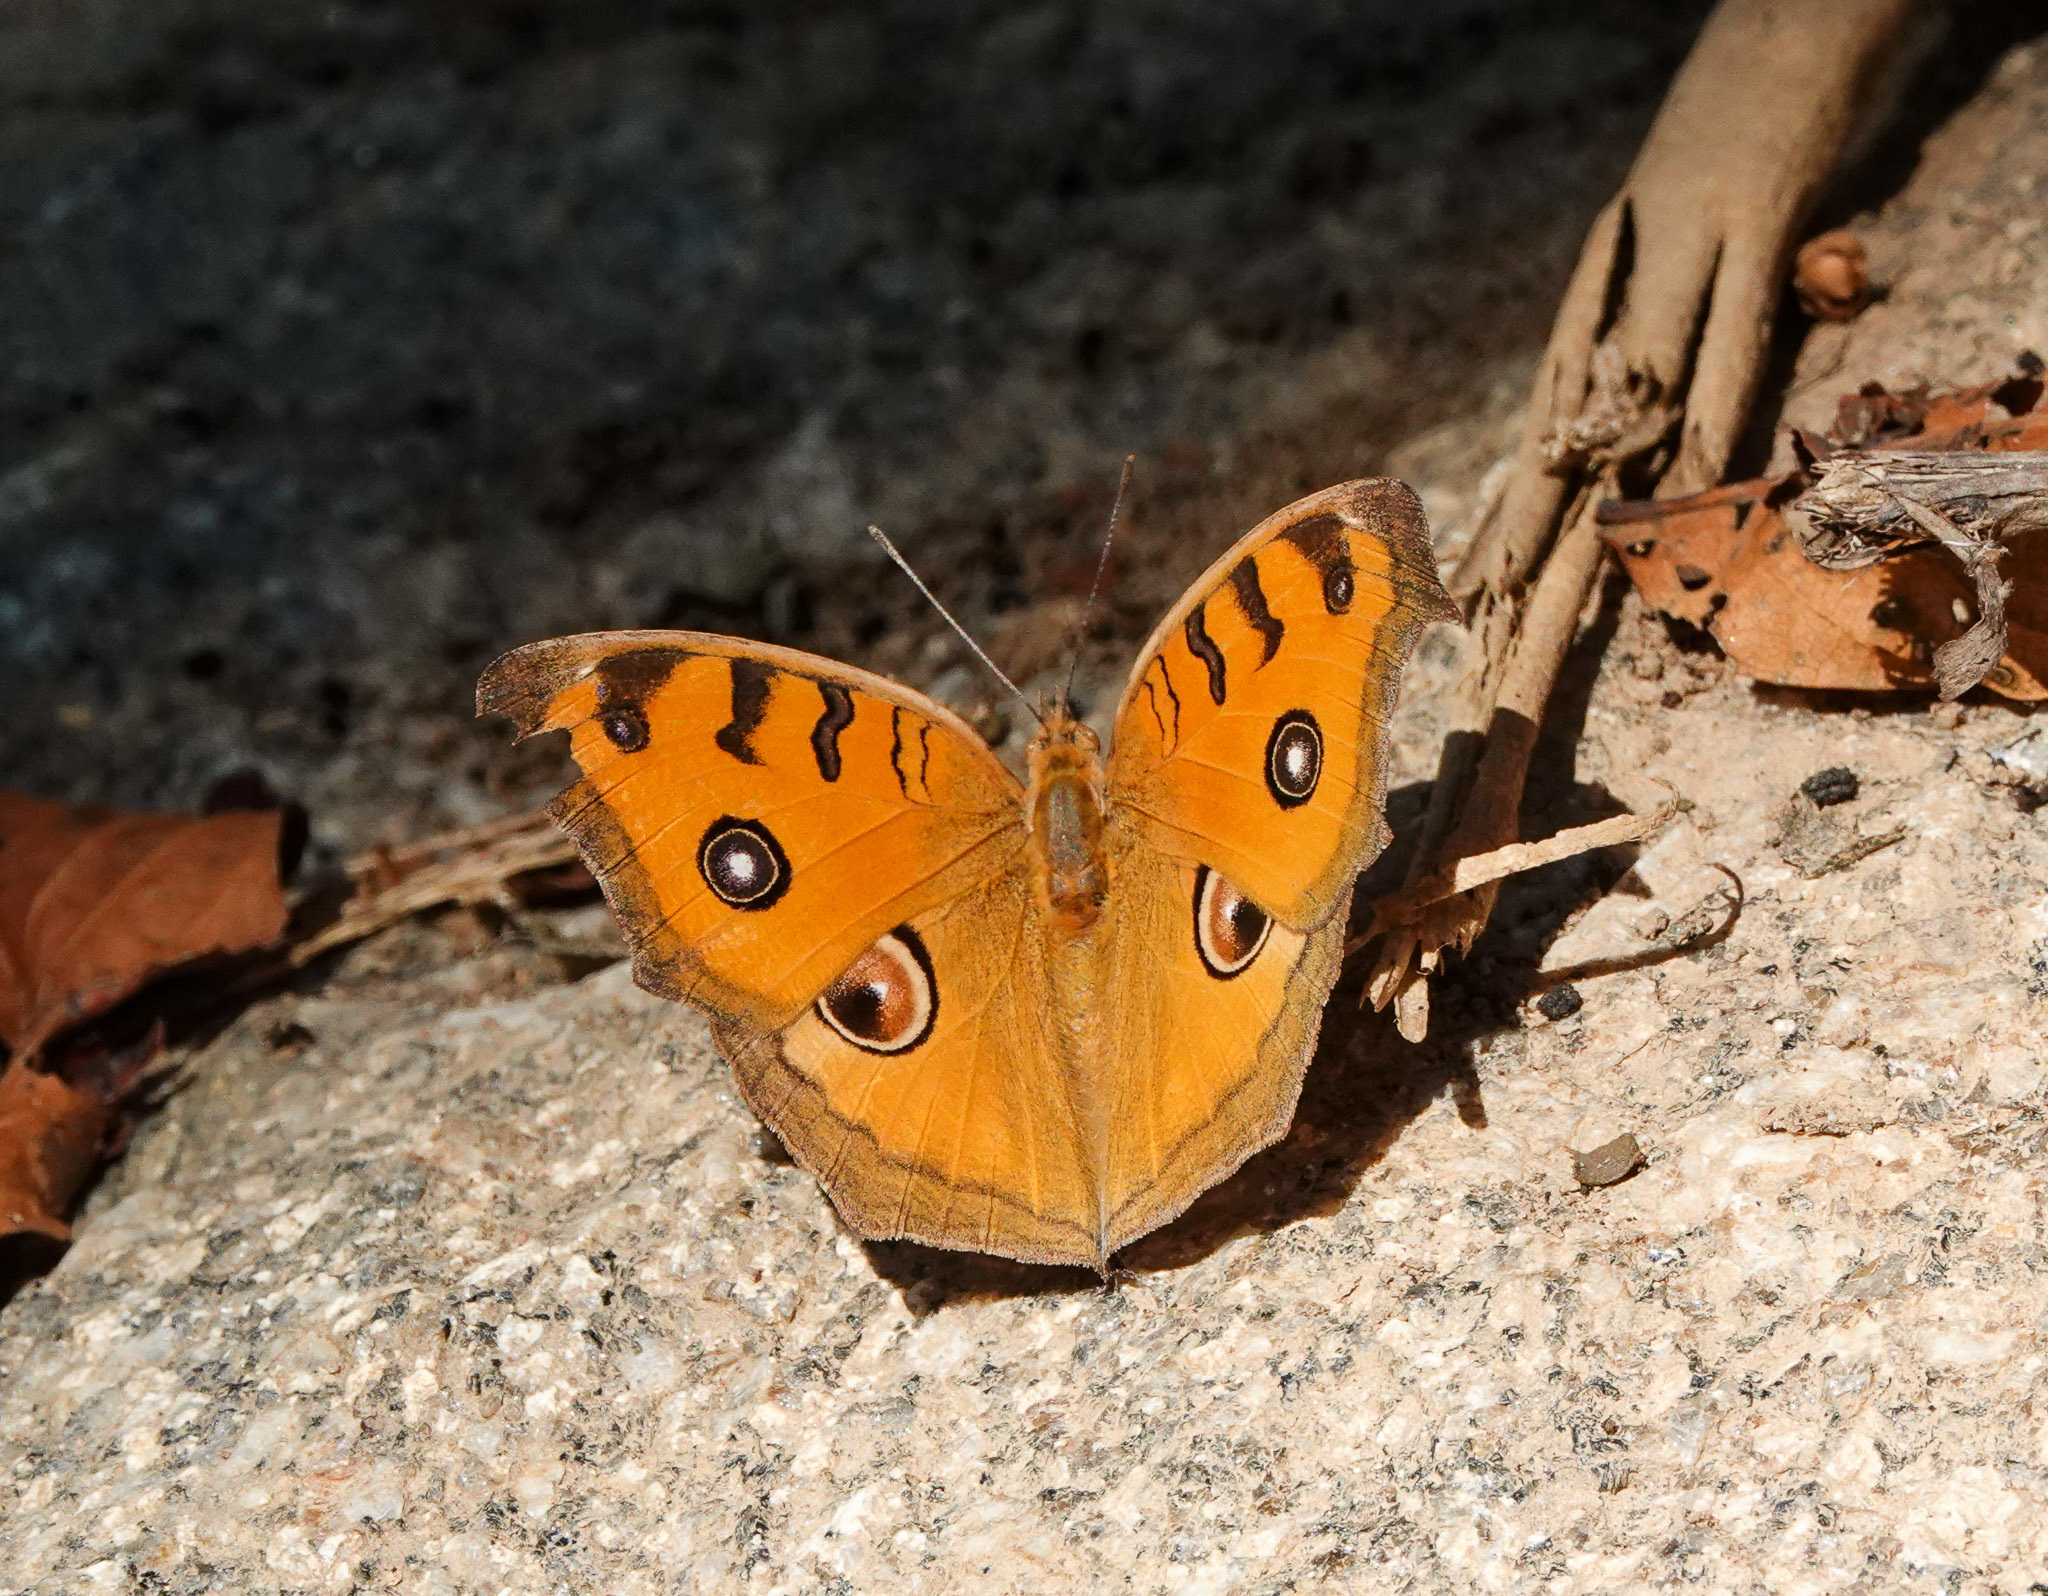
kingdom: Animalia
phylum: Arthropoda
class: Insecta
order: Lepidoptera
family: Nymphalidae
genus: Junonia
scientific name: Junonia almana
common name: Peacock pansy
